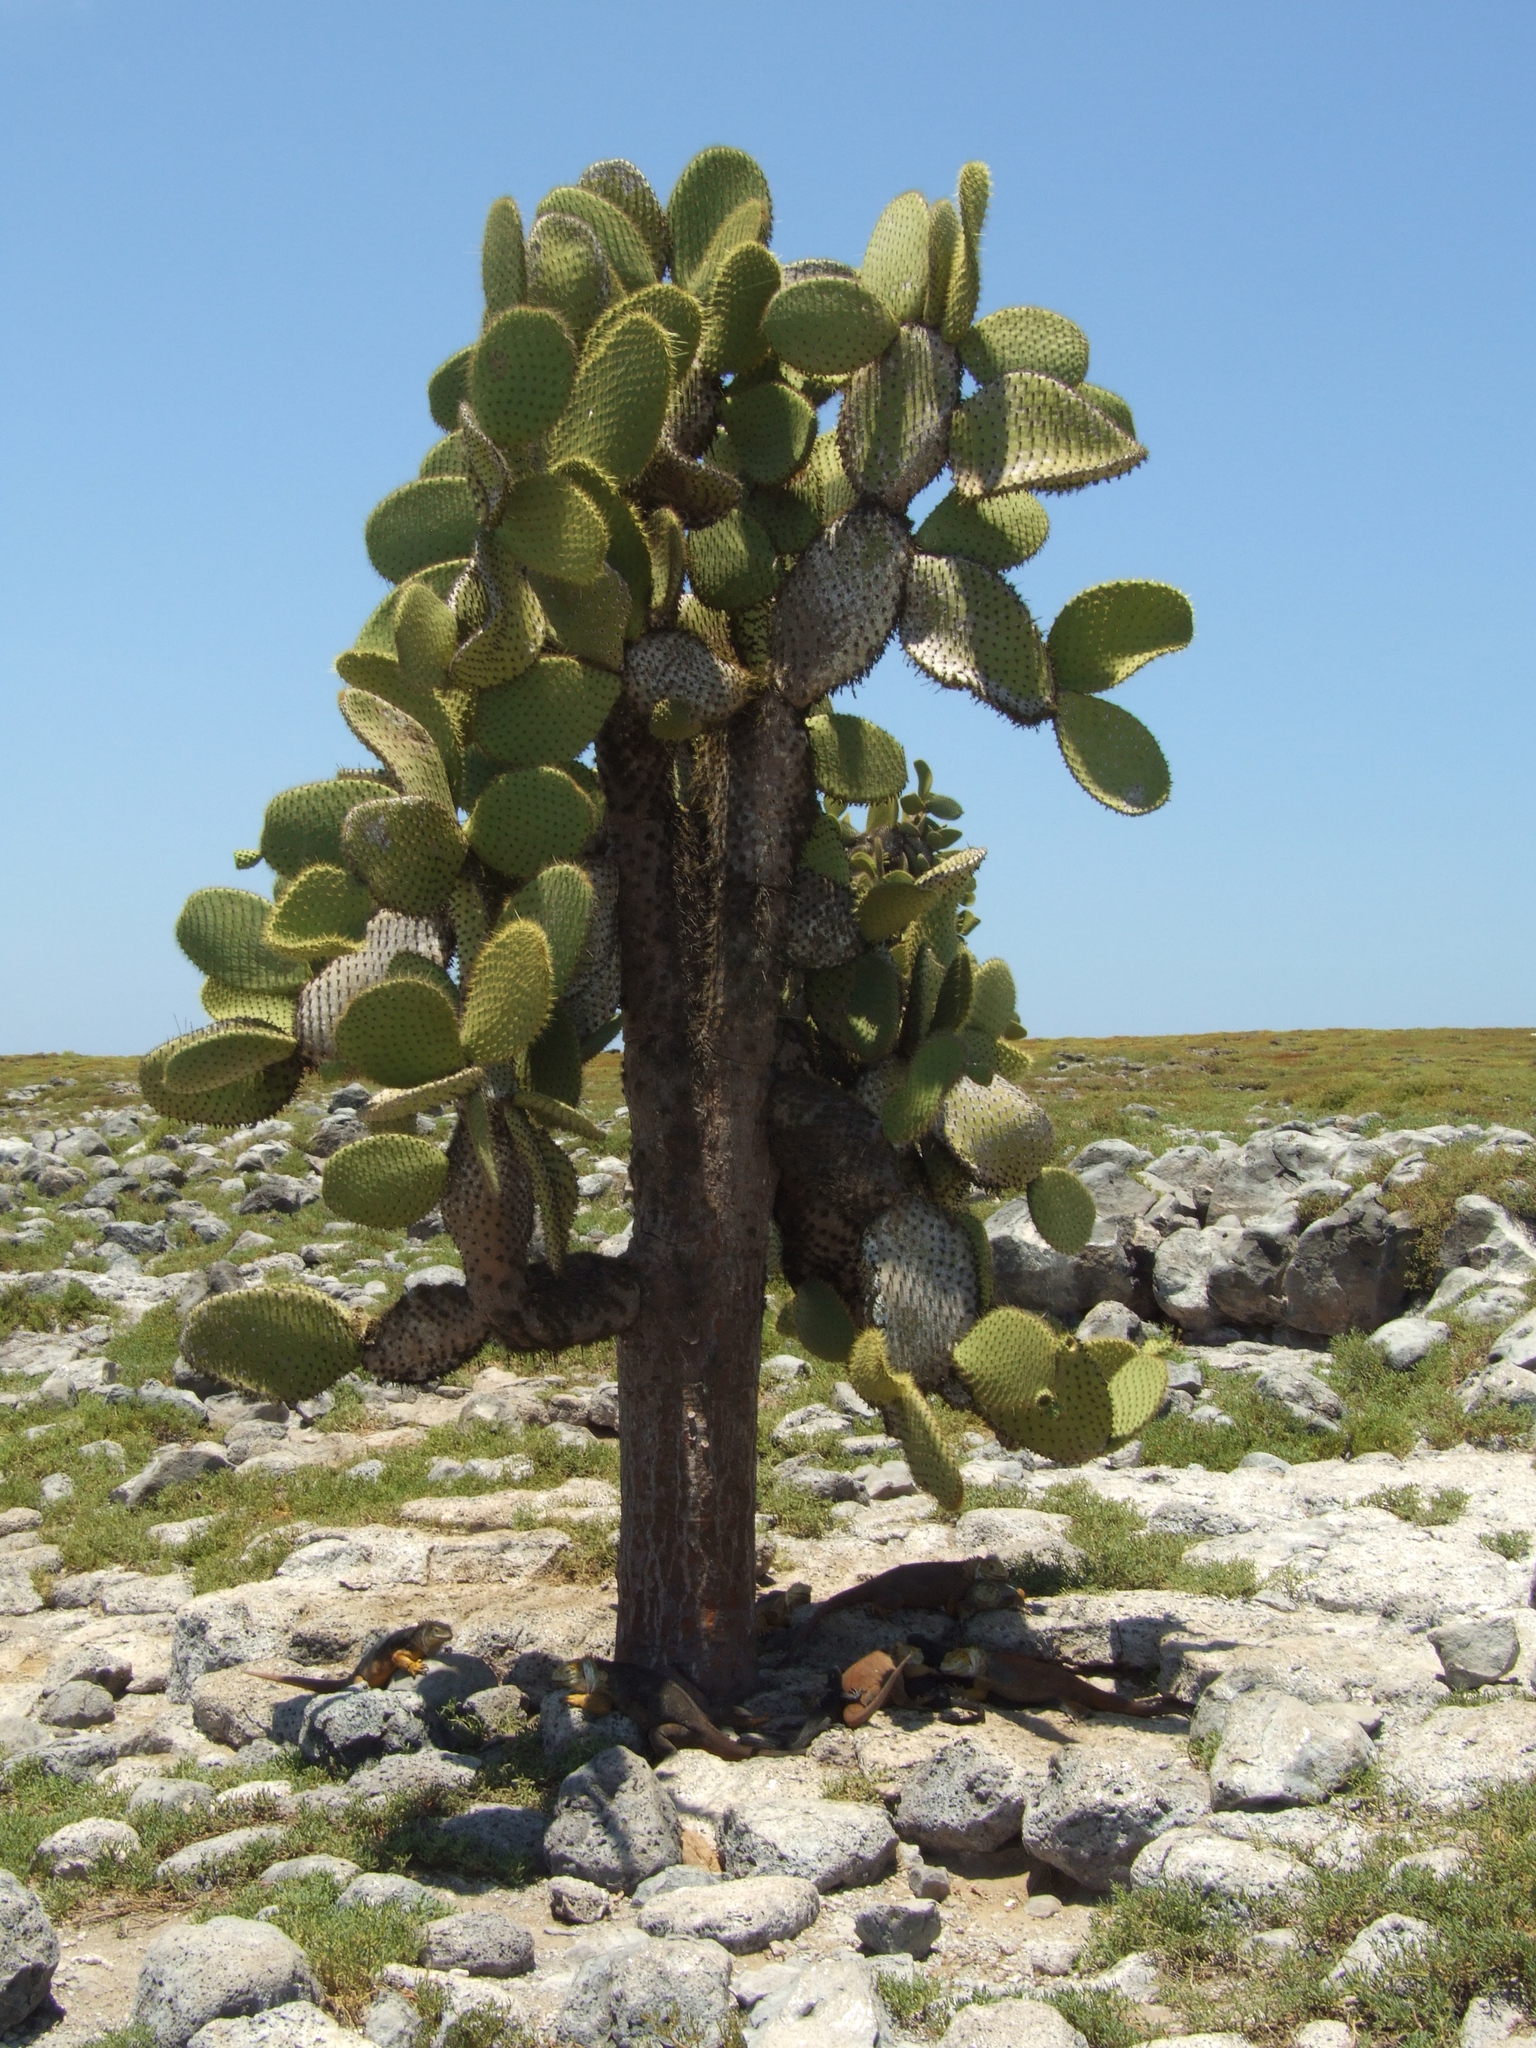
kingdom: Plantae
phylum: Tracheophyta
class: Magnoliopsida
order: Caryophyllales
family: Cactaceae
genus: Opuntia
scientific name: Opuntia galapageia
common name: Galápagos prickly pear
